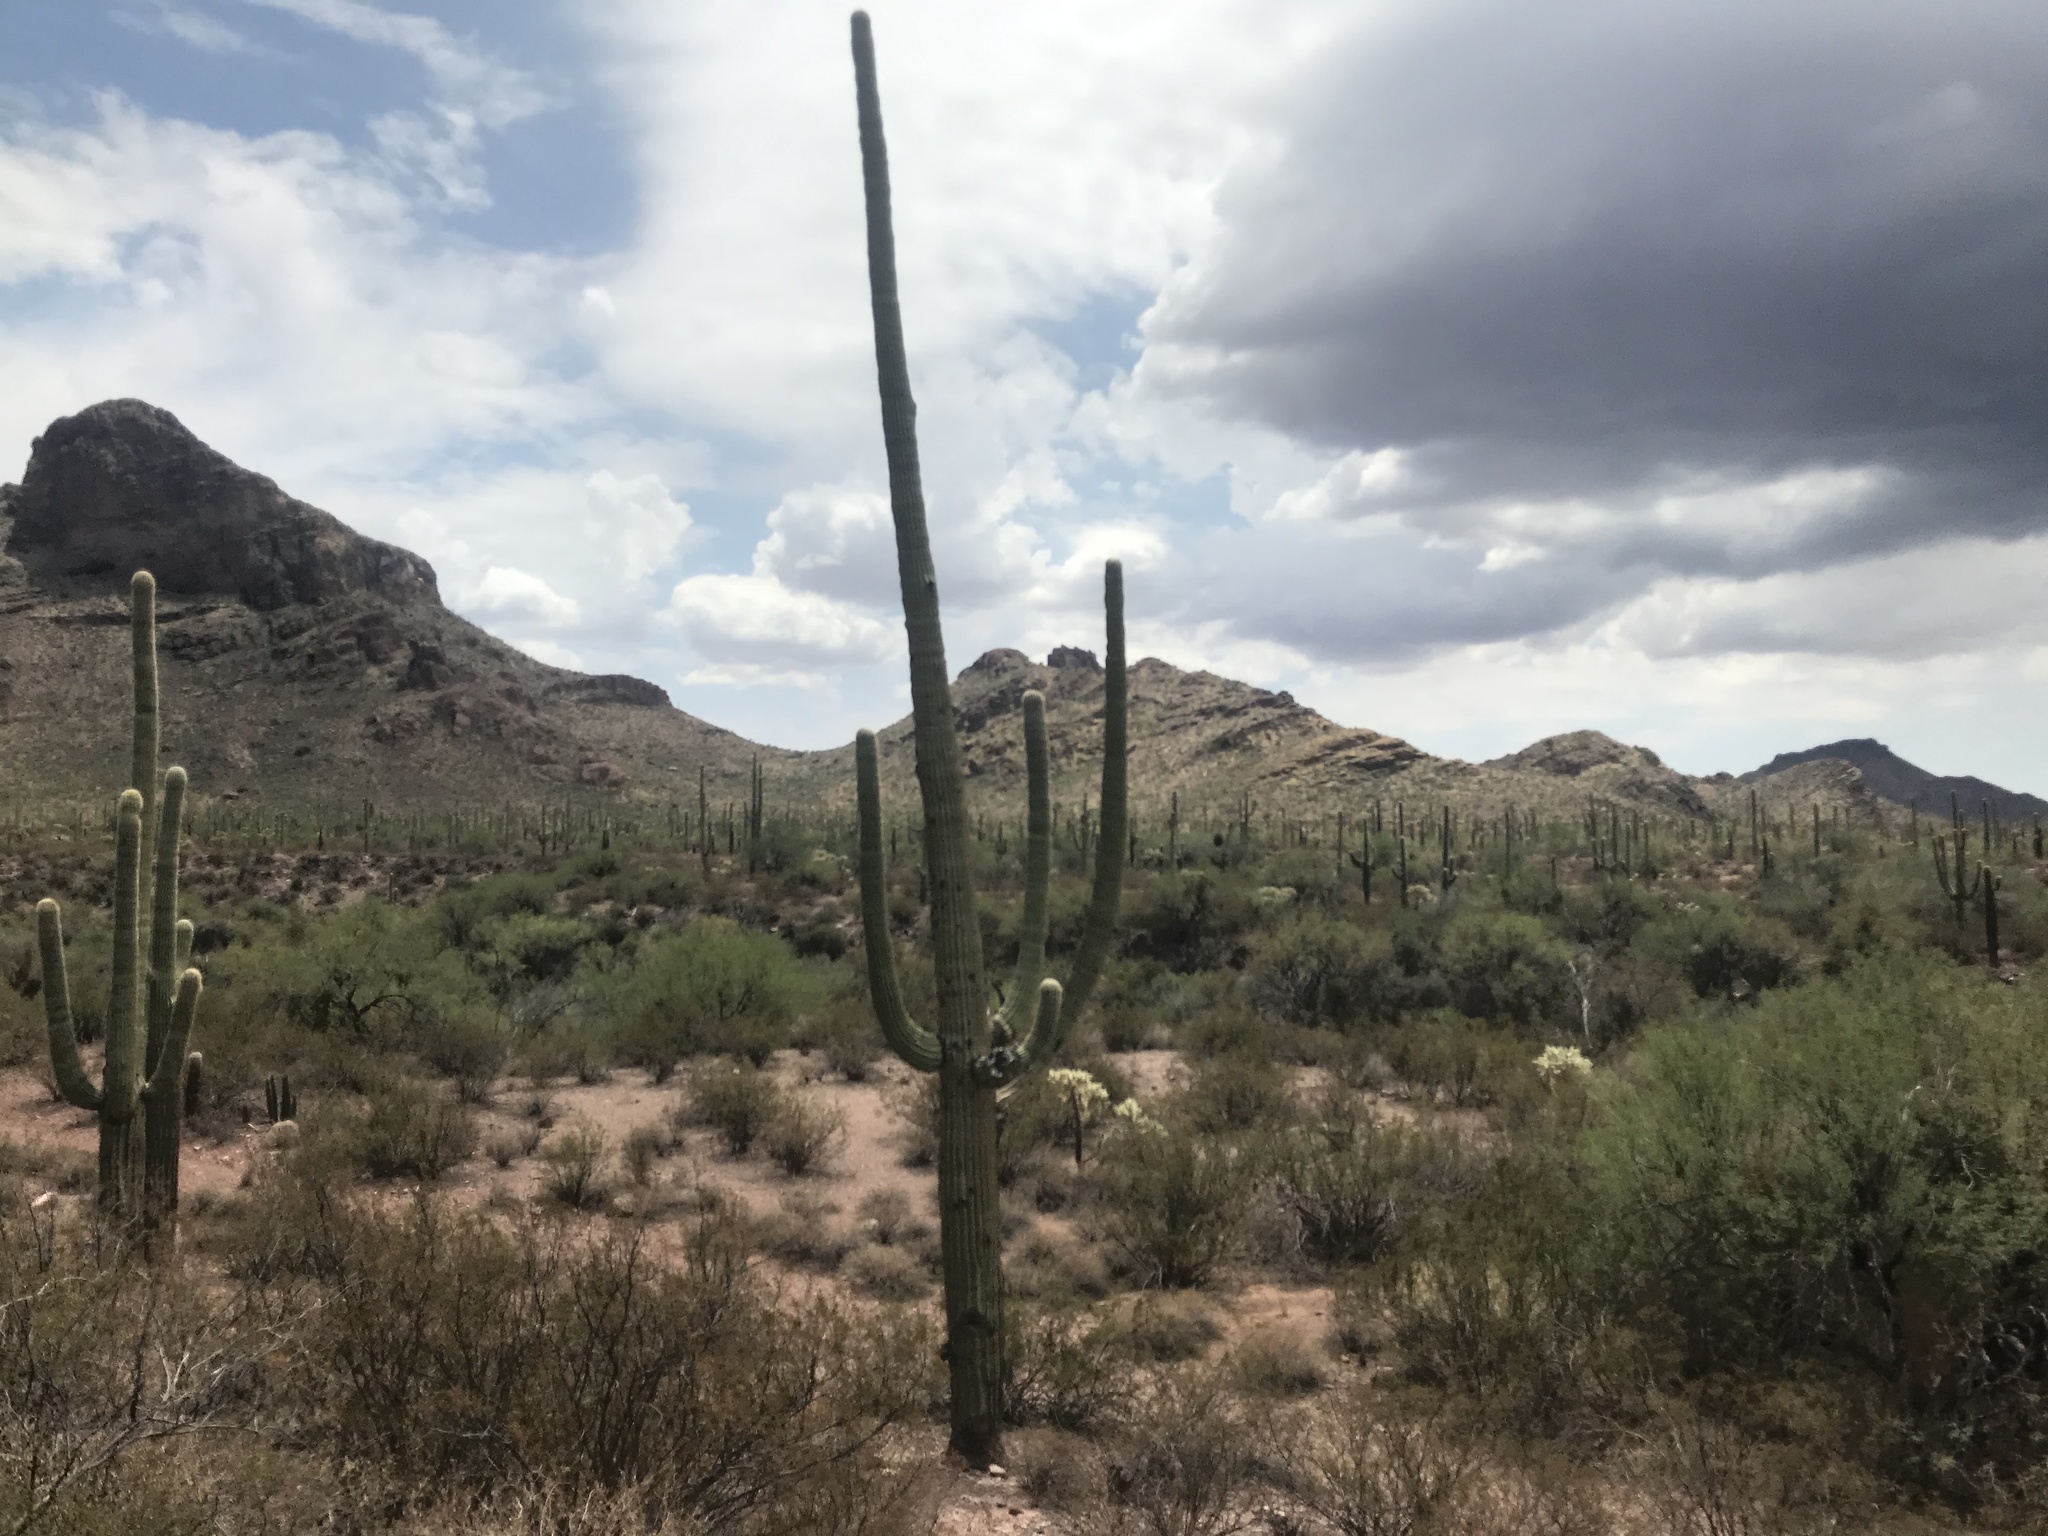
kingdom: Plantae
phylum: Tracheophyta
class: Magnoliopsida
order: Caryophyllales
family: Cactaceae
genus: Carnegiea
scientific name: Carnegiea gigantea
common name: Saguaro
